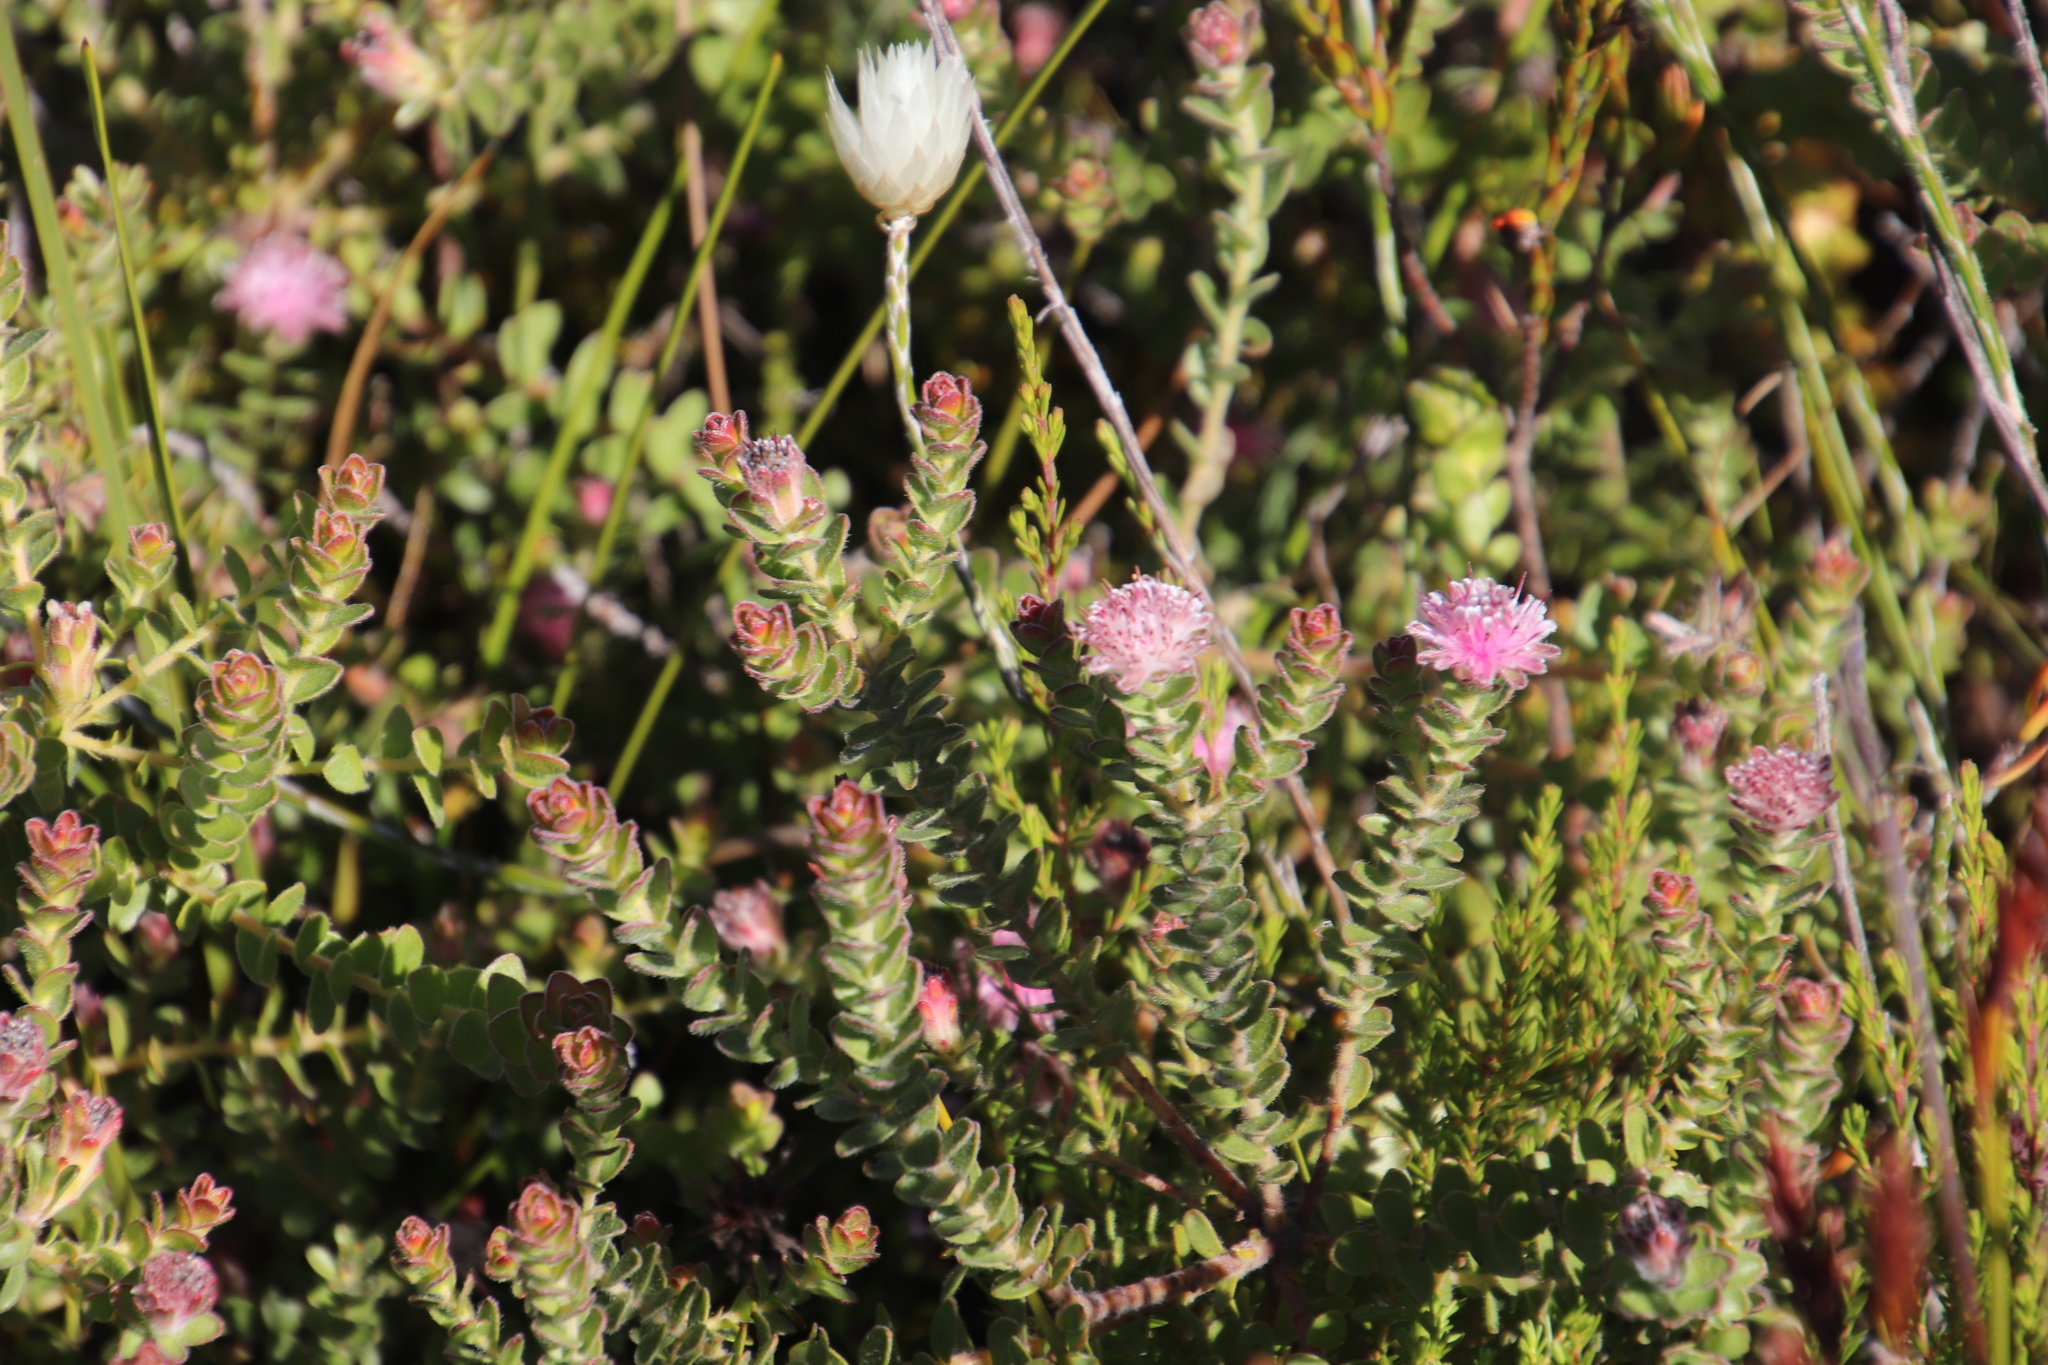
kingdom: Plantae
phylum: Tracheophyta
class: Magnoliopsida
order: Proteales
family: Proteaceae
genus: Diastella
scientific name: Diastella divaricata
